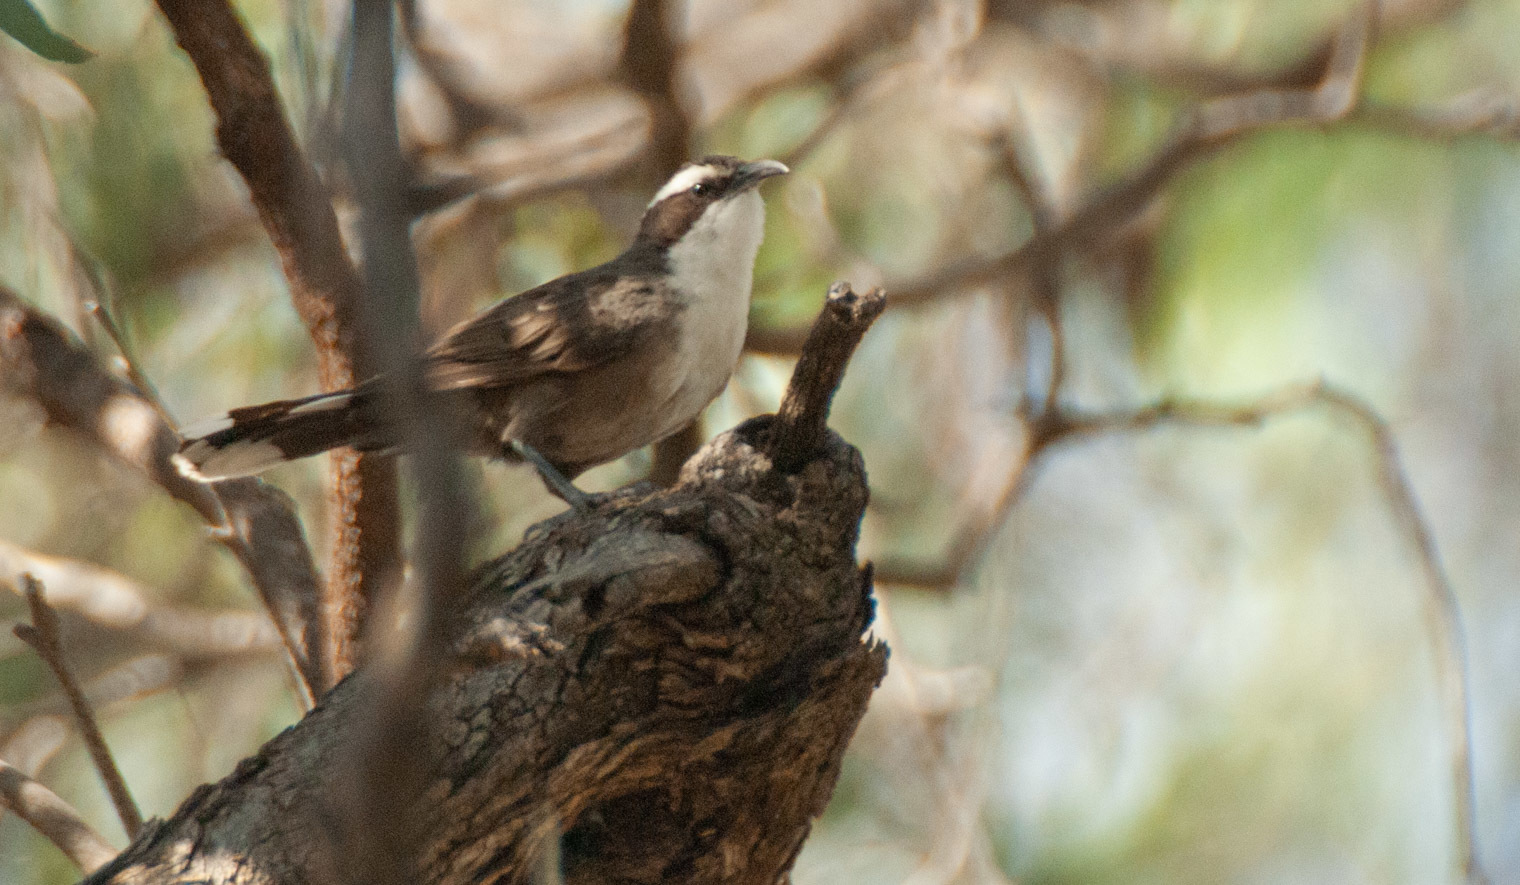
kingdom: Animalia
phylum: Chordata
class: Aves
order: Passeriformes
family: Pomatostomidae
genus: Pomatostomus
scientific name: Pomatostomus superciliosus
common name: White-browed babbler
